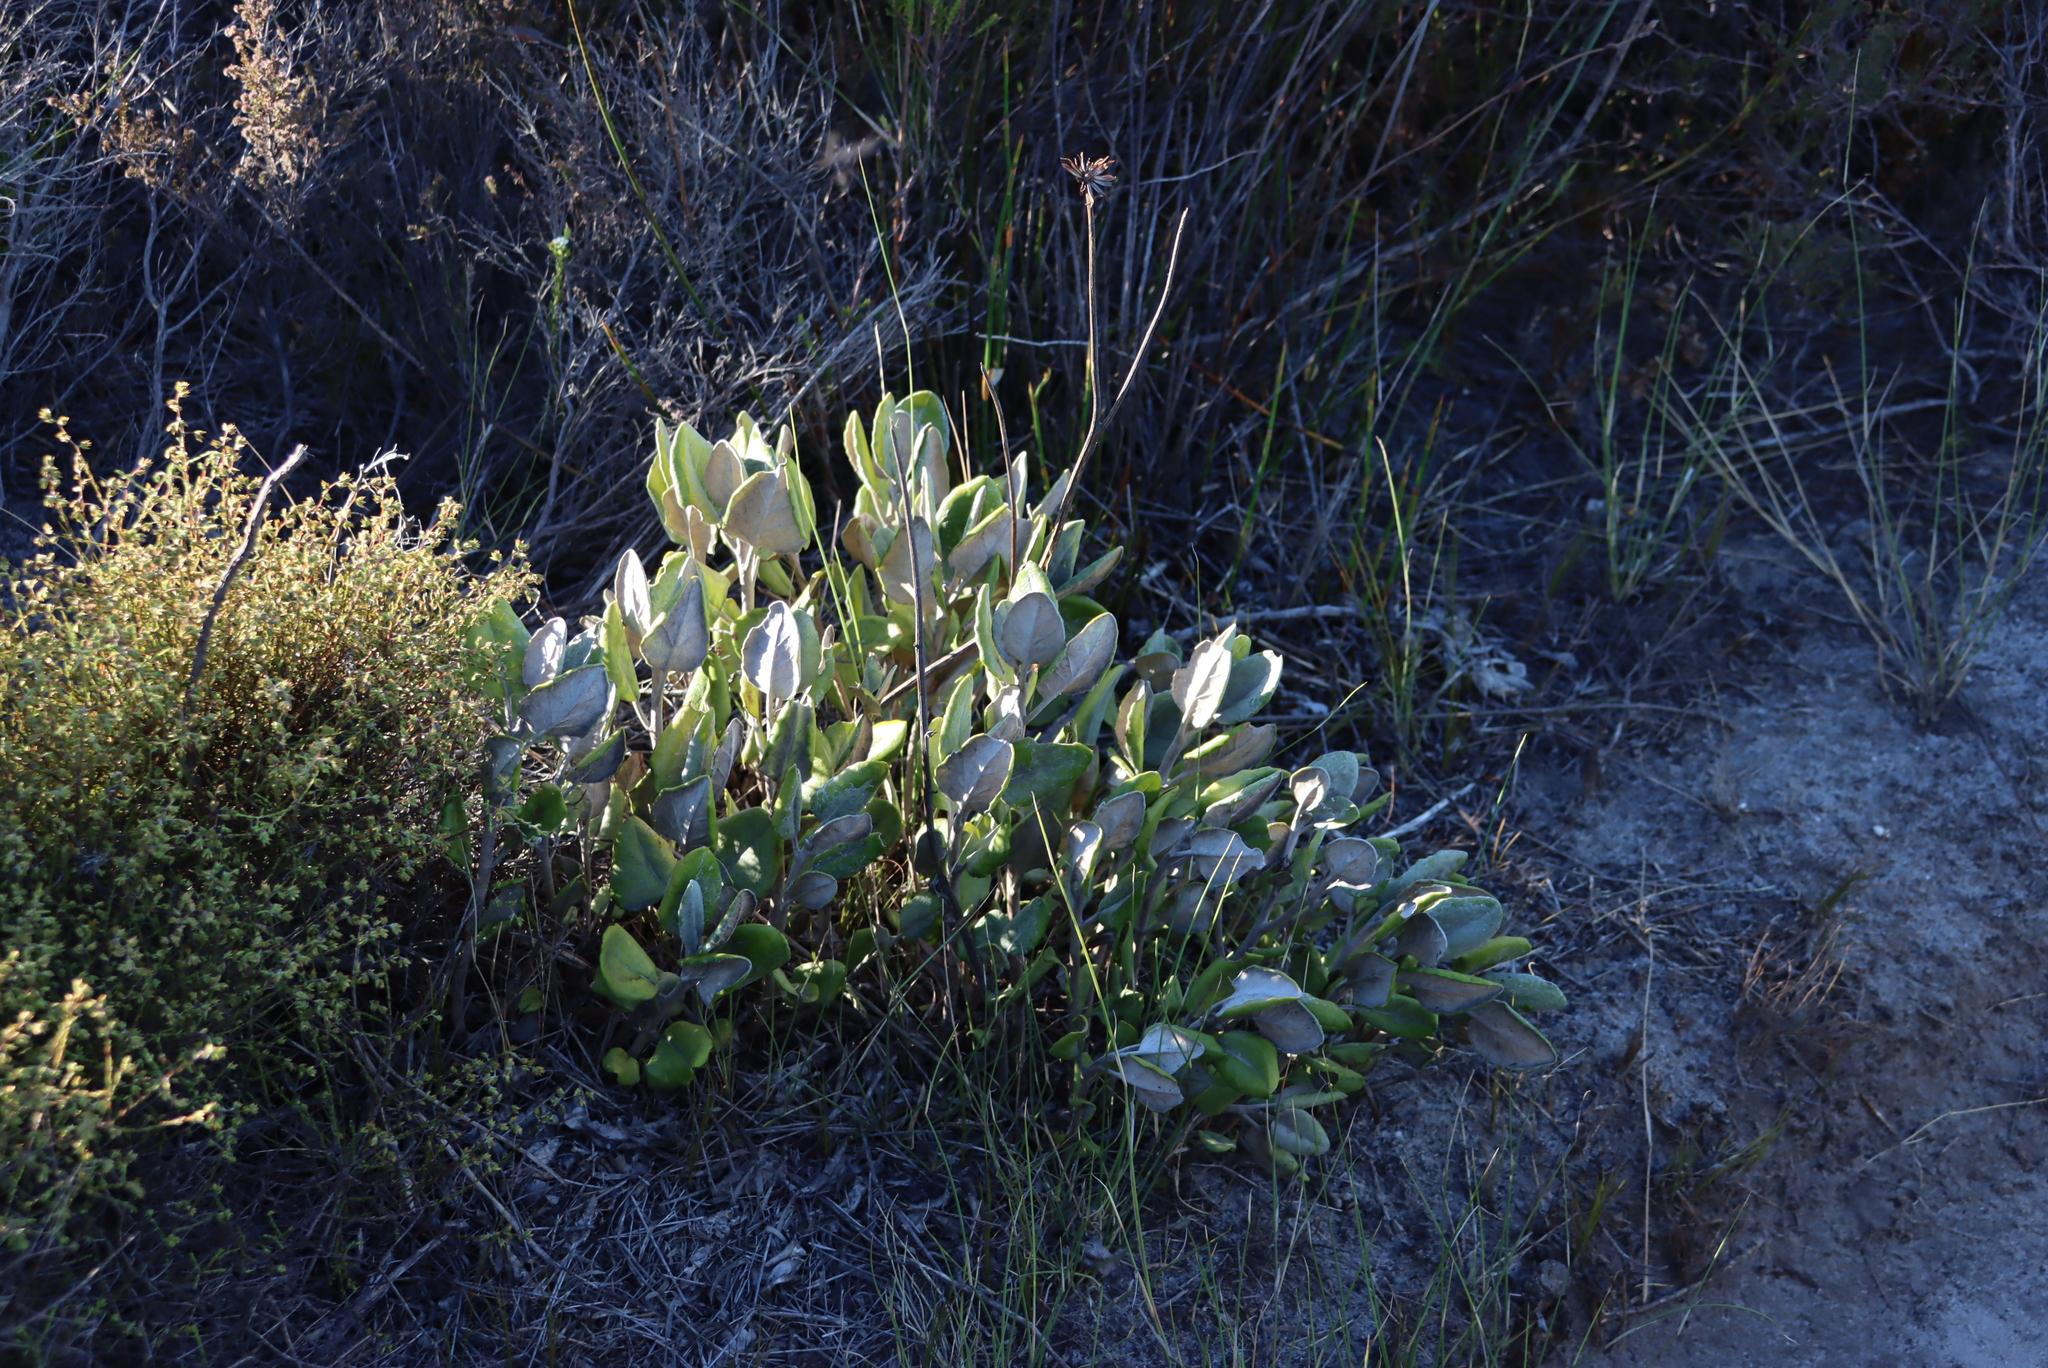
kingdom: Plantae
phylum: Tracheophyta
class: Magnoliopsida
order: Apiales
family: Apiaceae
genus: Hermas
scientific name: Hermas villosa
